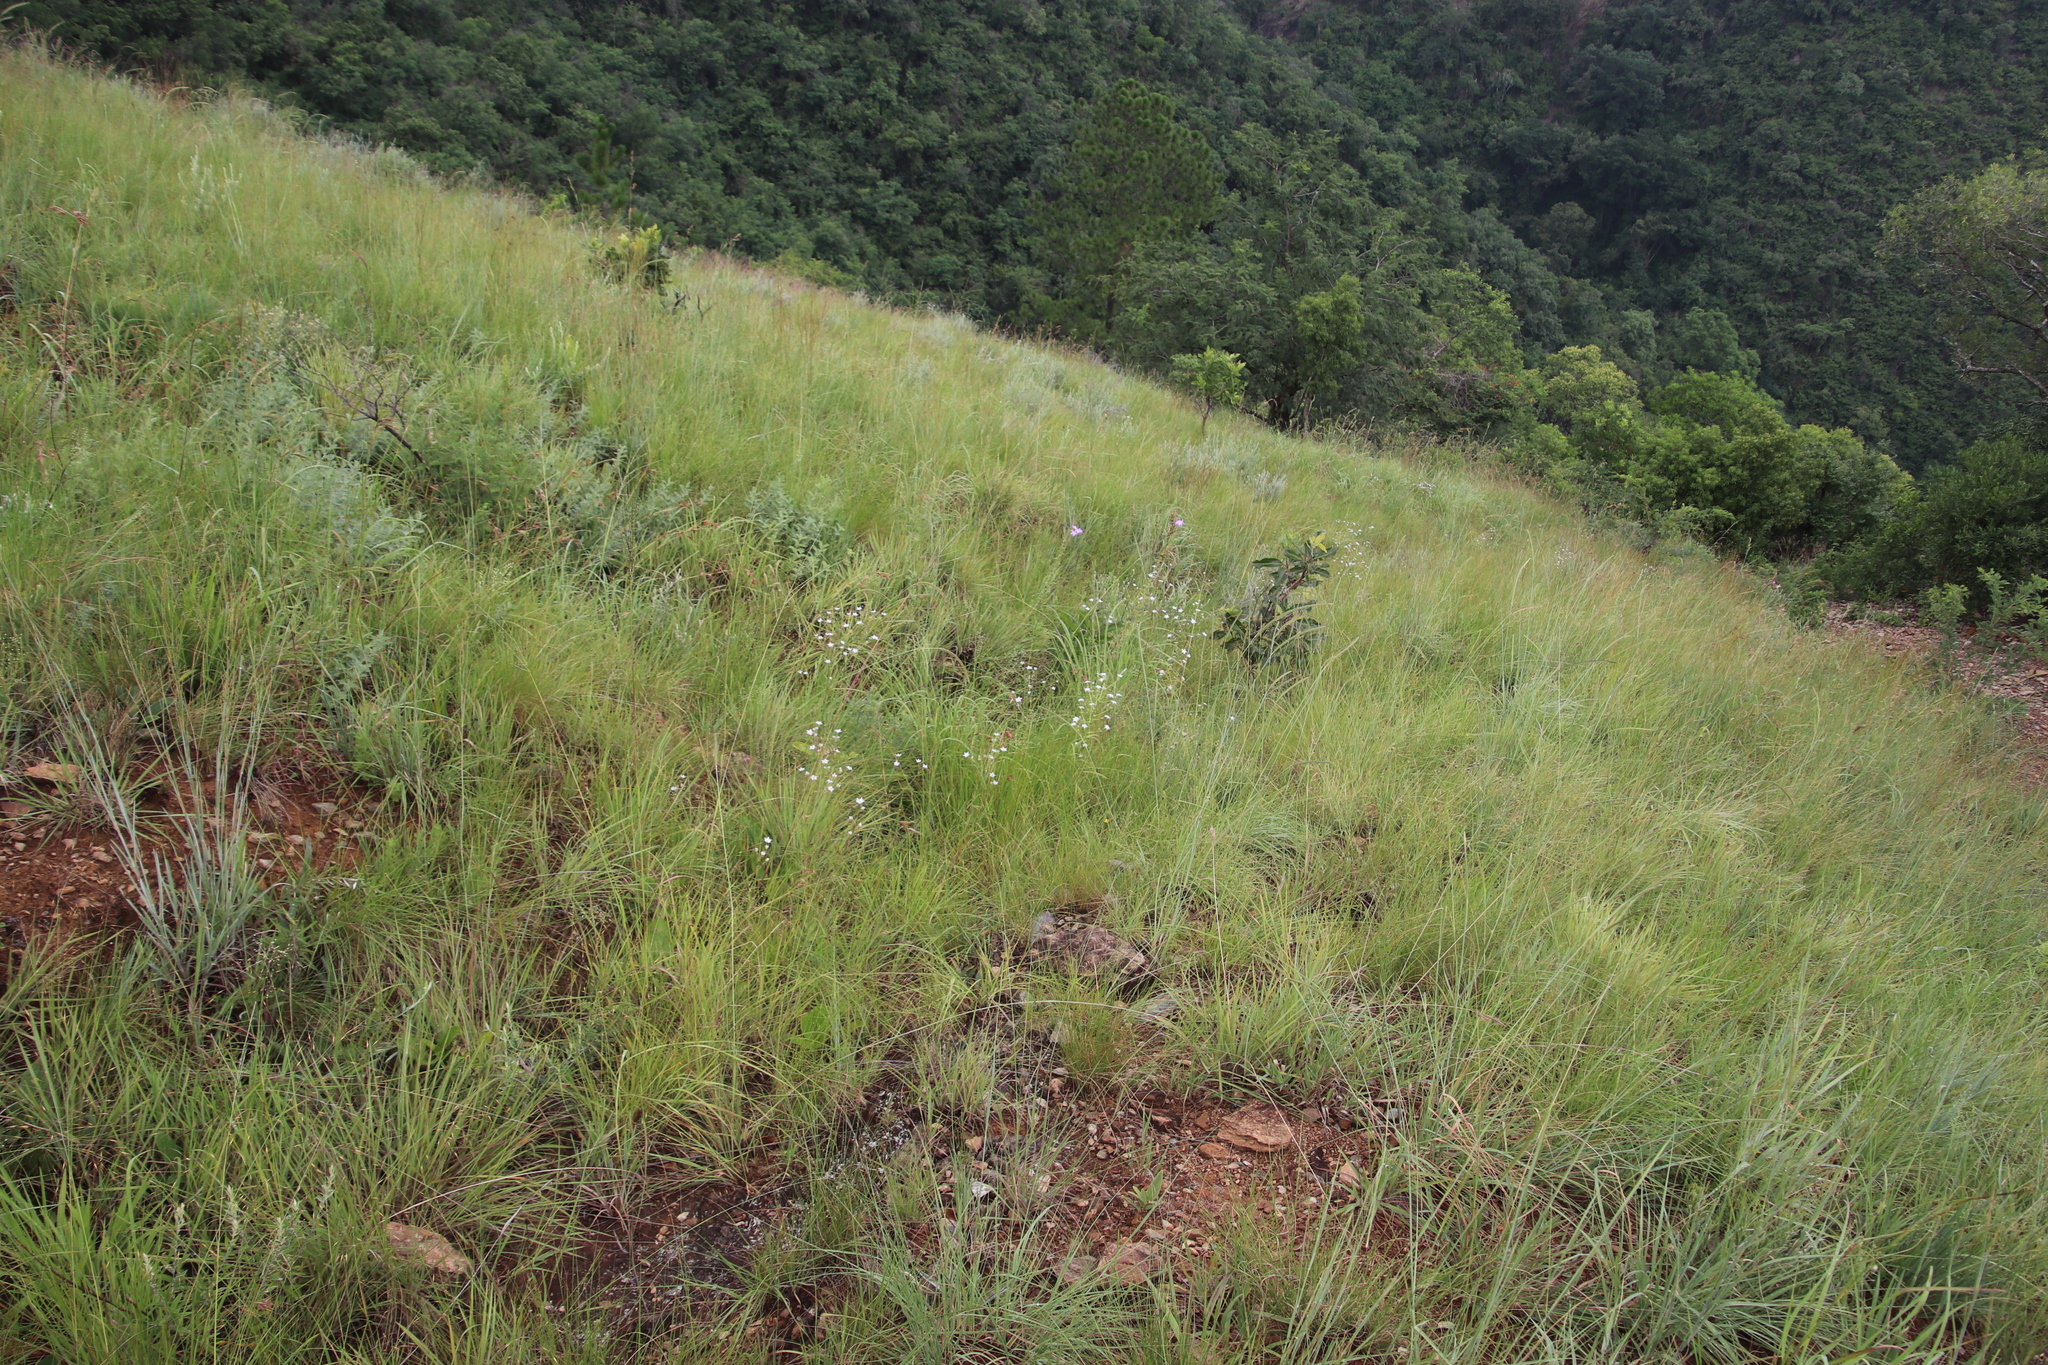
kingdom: Plantae
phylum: Tracheophyta
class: Magnoliopsida
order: Apiales
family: Apiaceae
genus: Alepidea
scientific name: Alepidea peduncularis
